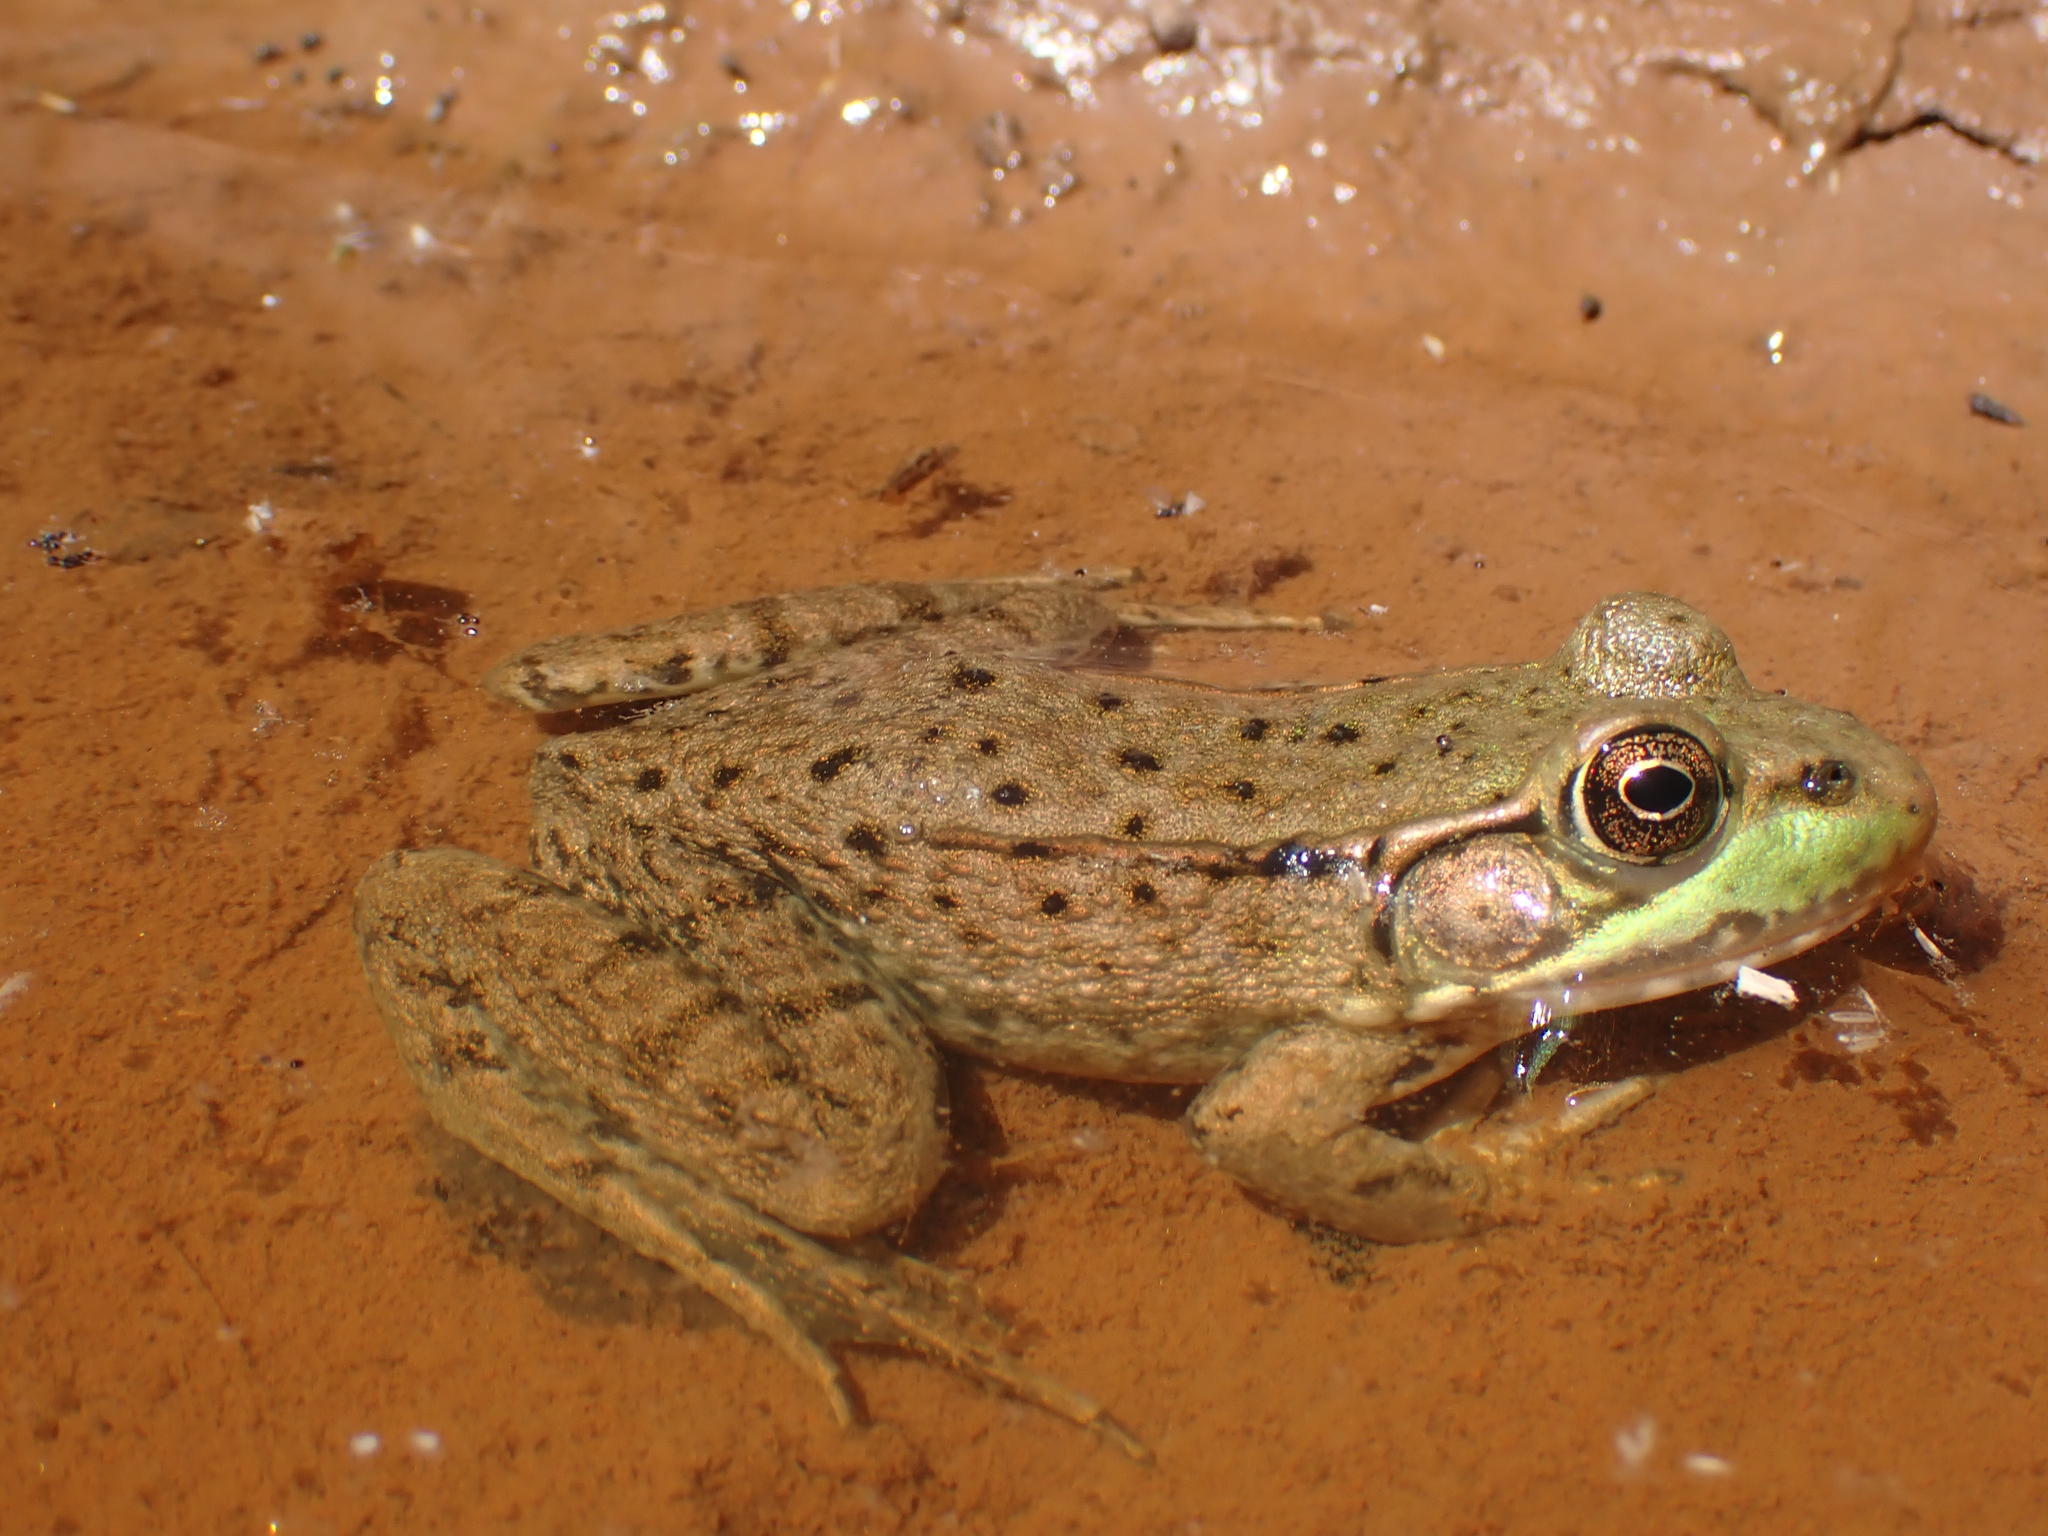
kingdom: Animalia
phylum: Chordata
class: Amphibia
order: Anura
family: Ranidae
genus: Lithobates
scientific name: Lithobates clamitans
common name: Green frog
